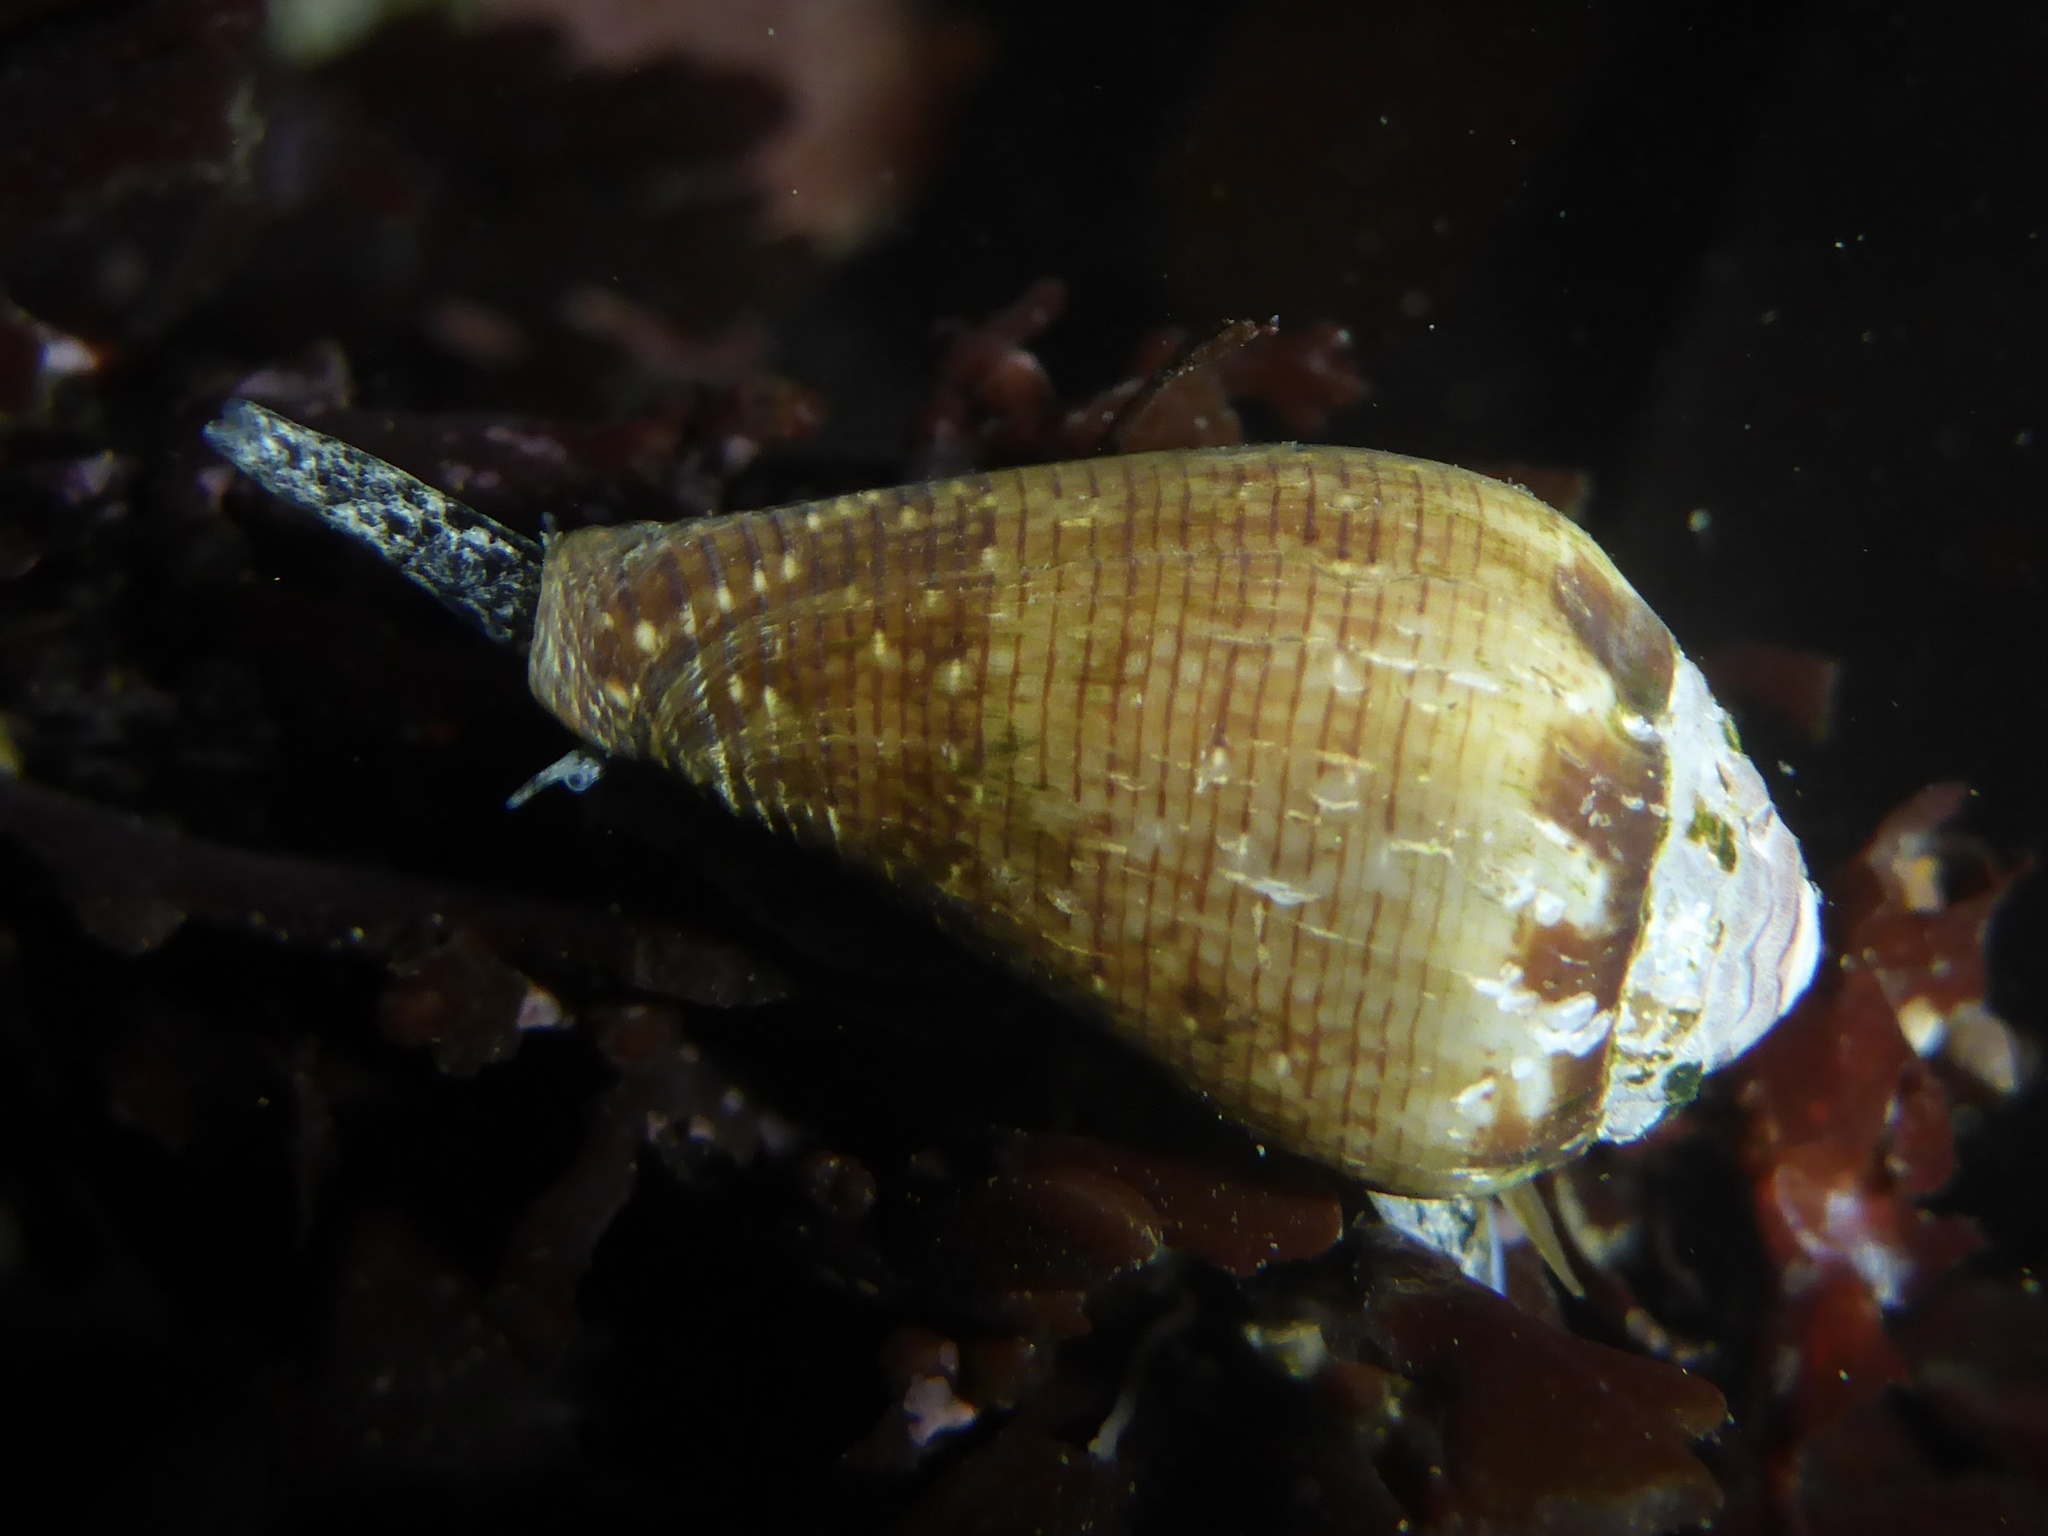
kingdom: Animalia
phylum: Mollusca
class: Gastropoda
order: Neogastropoda
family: Conidae
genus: Californiconus
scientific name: Californiconus californicus
